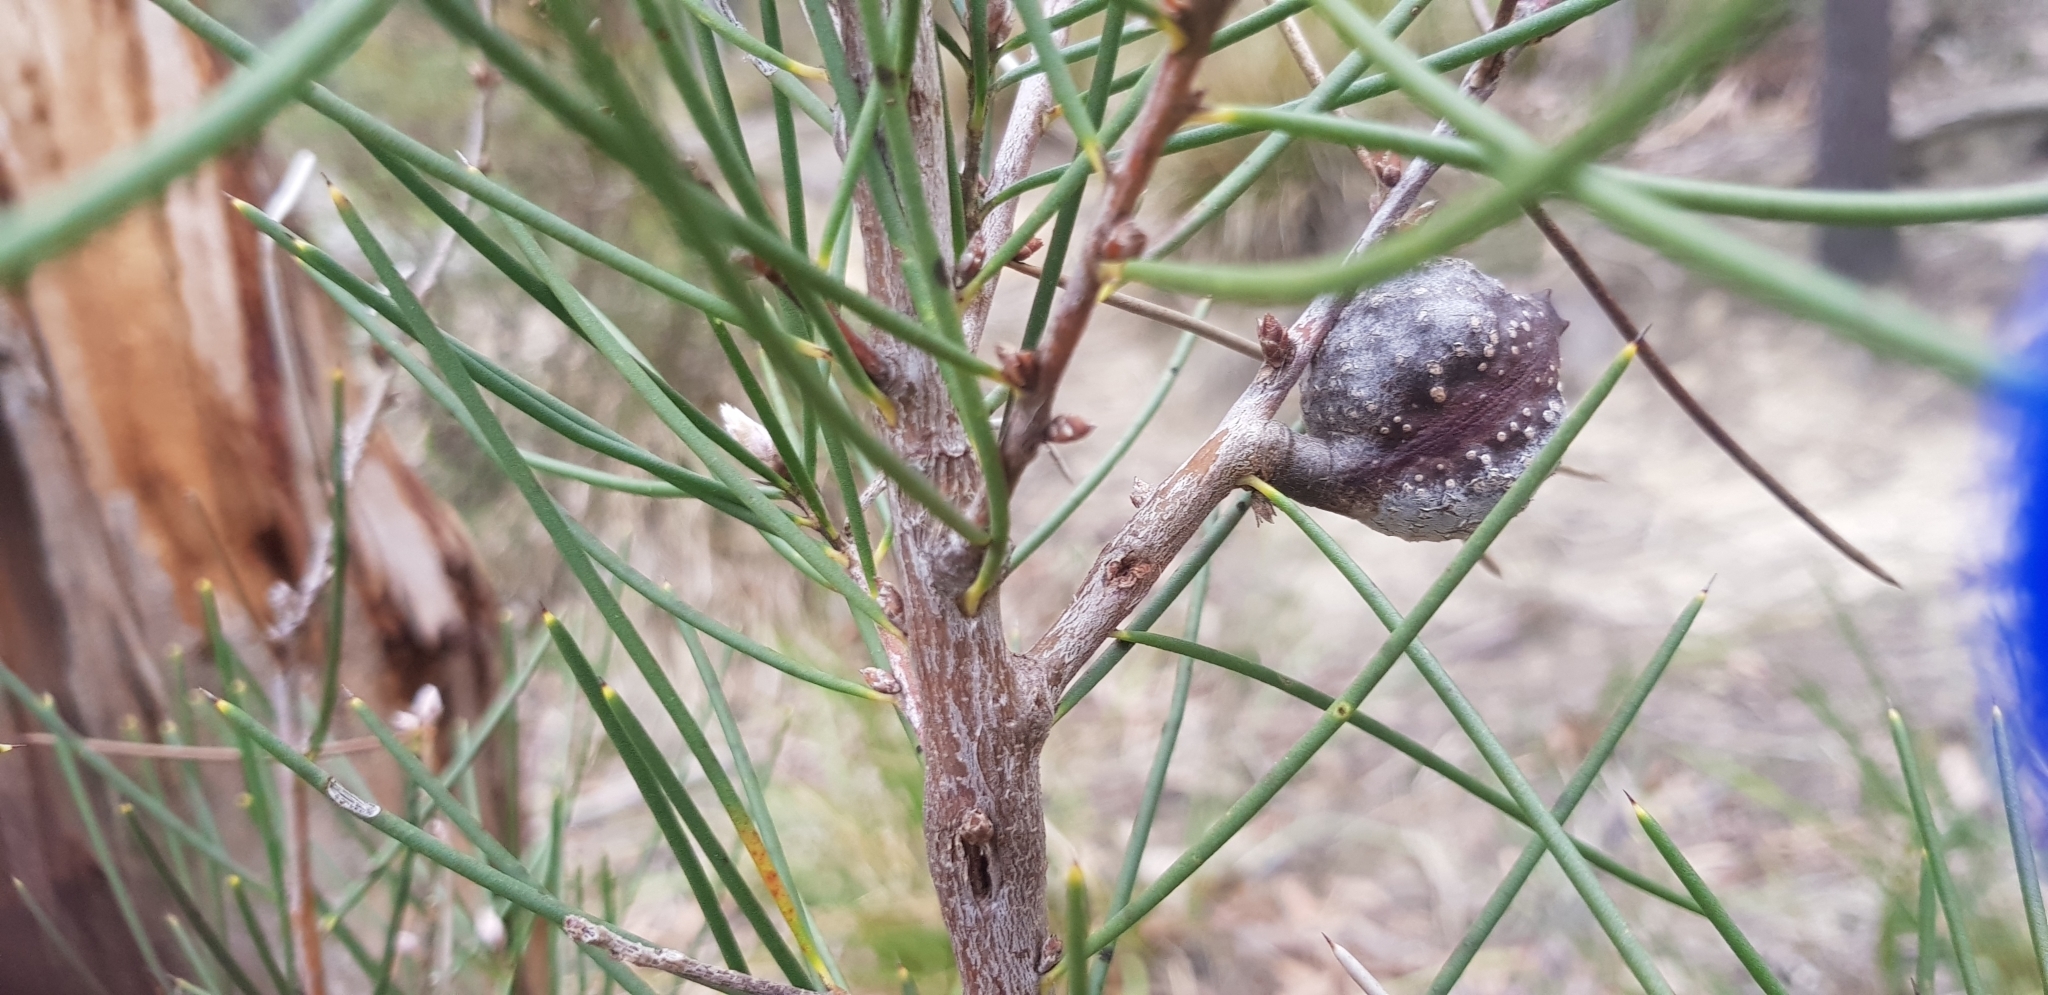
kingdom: Plantae
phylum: Tracheophyta
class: Magnoliopsida
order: Proteales
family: Proteaceae
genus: Hakea
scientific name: Hakea lissosperma
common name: Mountain needlewood
